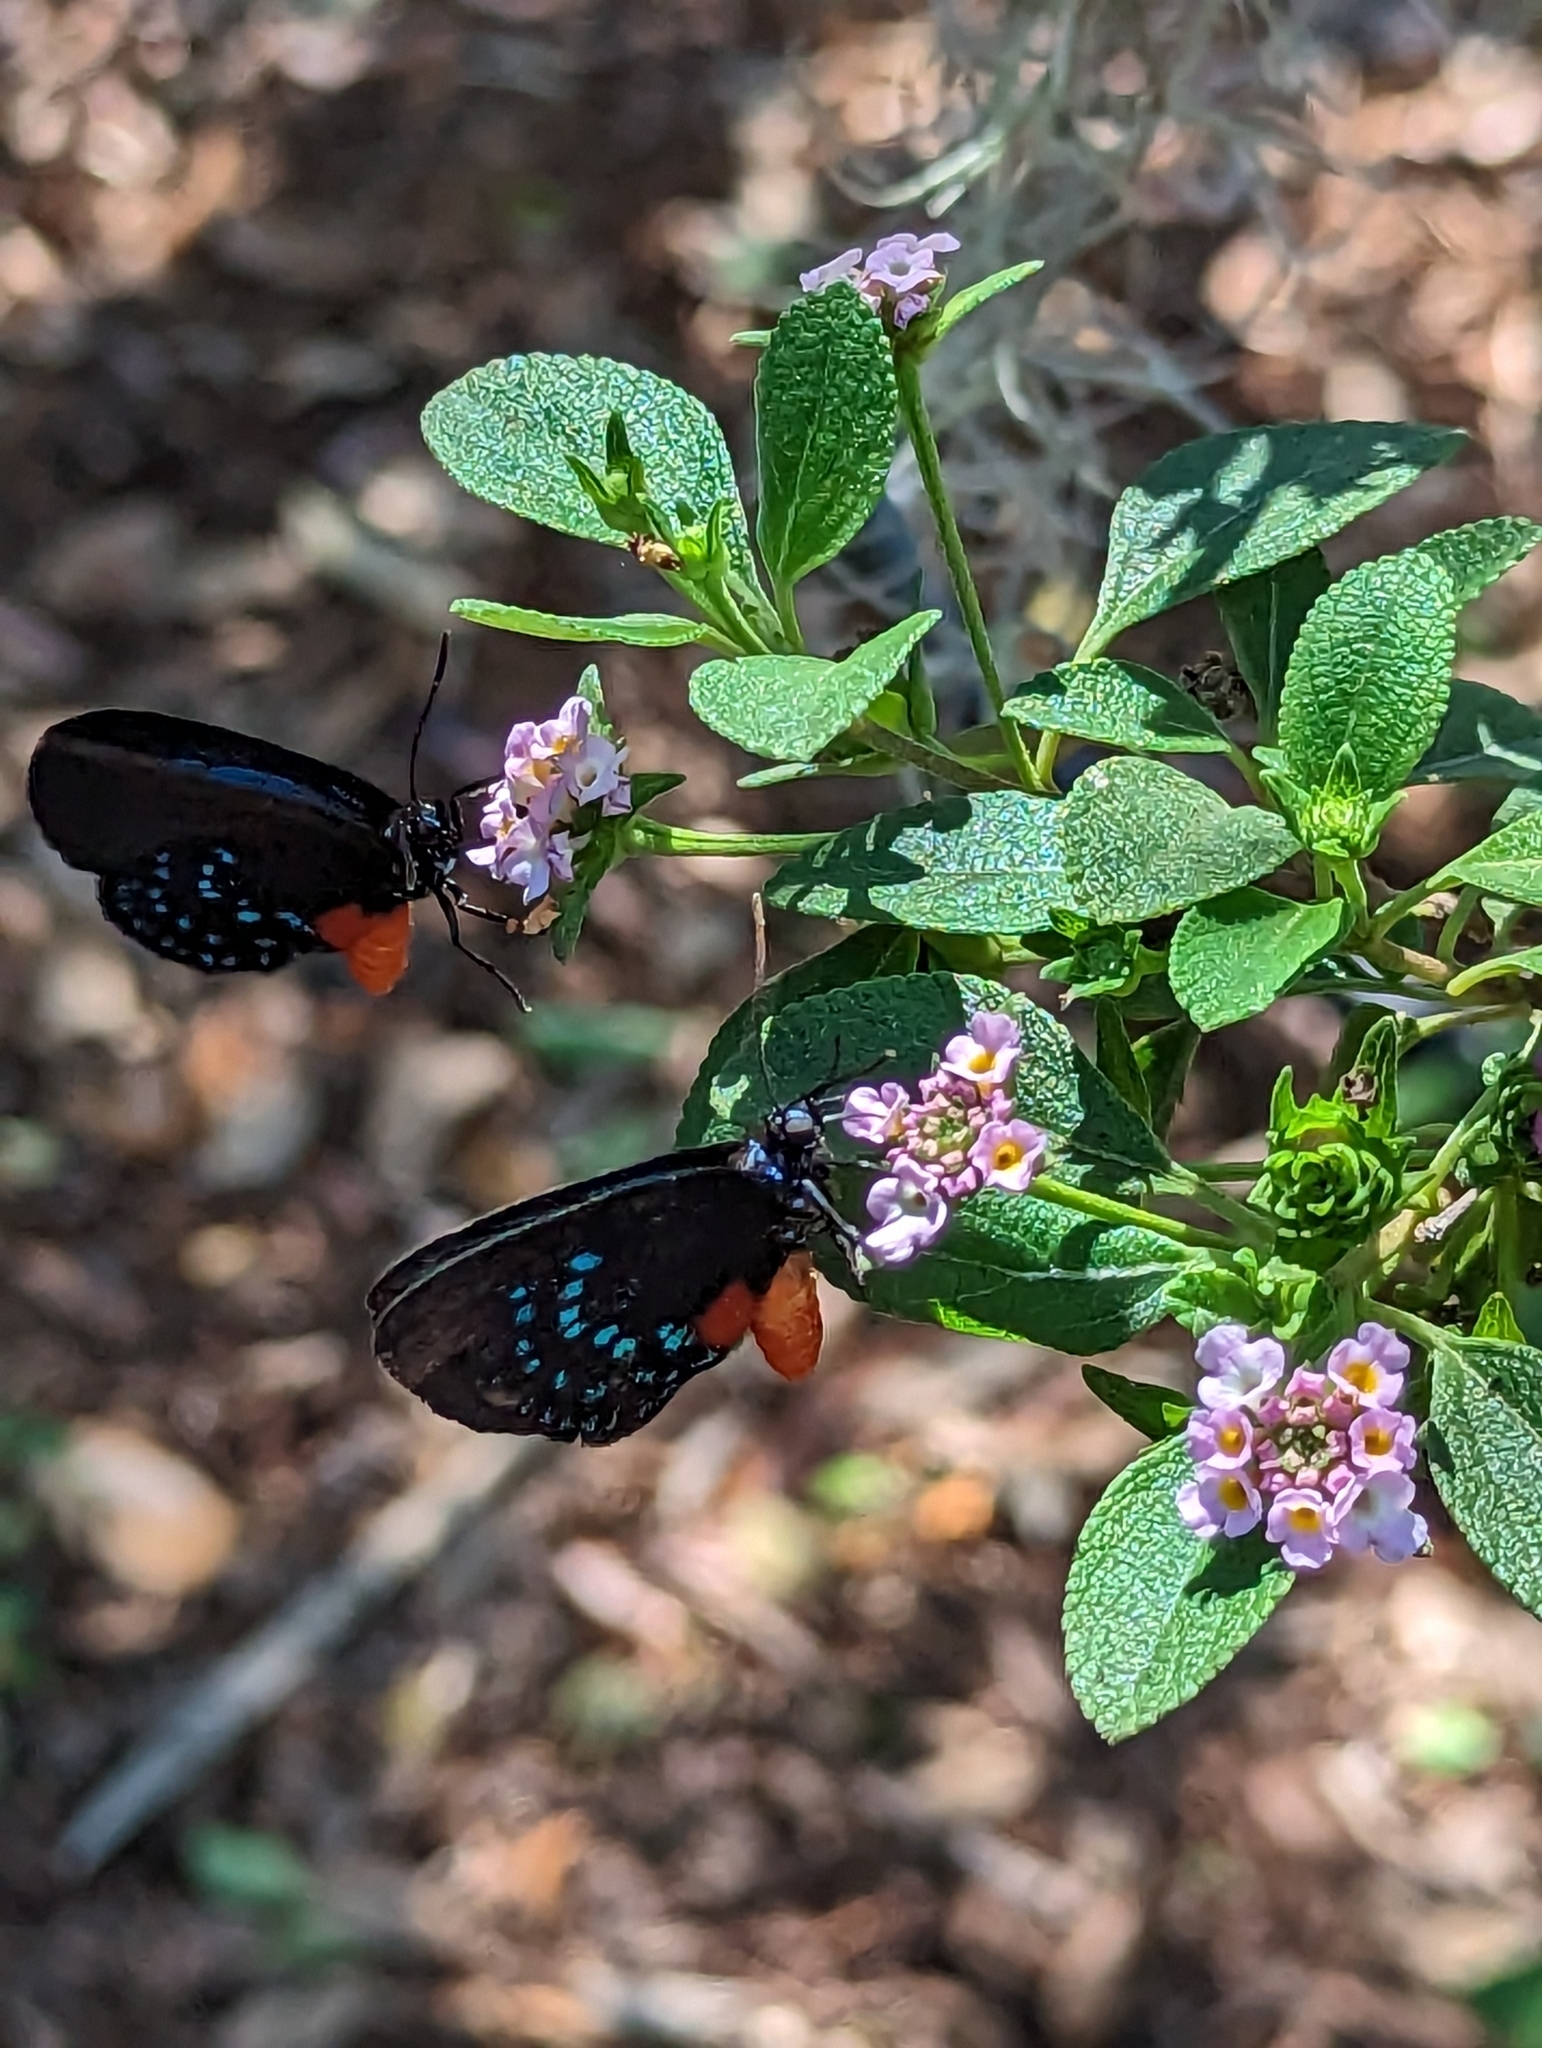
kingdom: Animalia
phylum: Arthropoda
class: Insecta
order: Lepidoptera
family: Lycaenidae
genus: Eumaeus
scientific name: Eumaeus atala
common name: Atala
